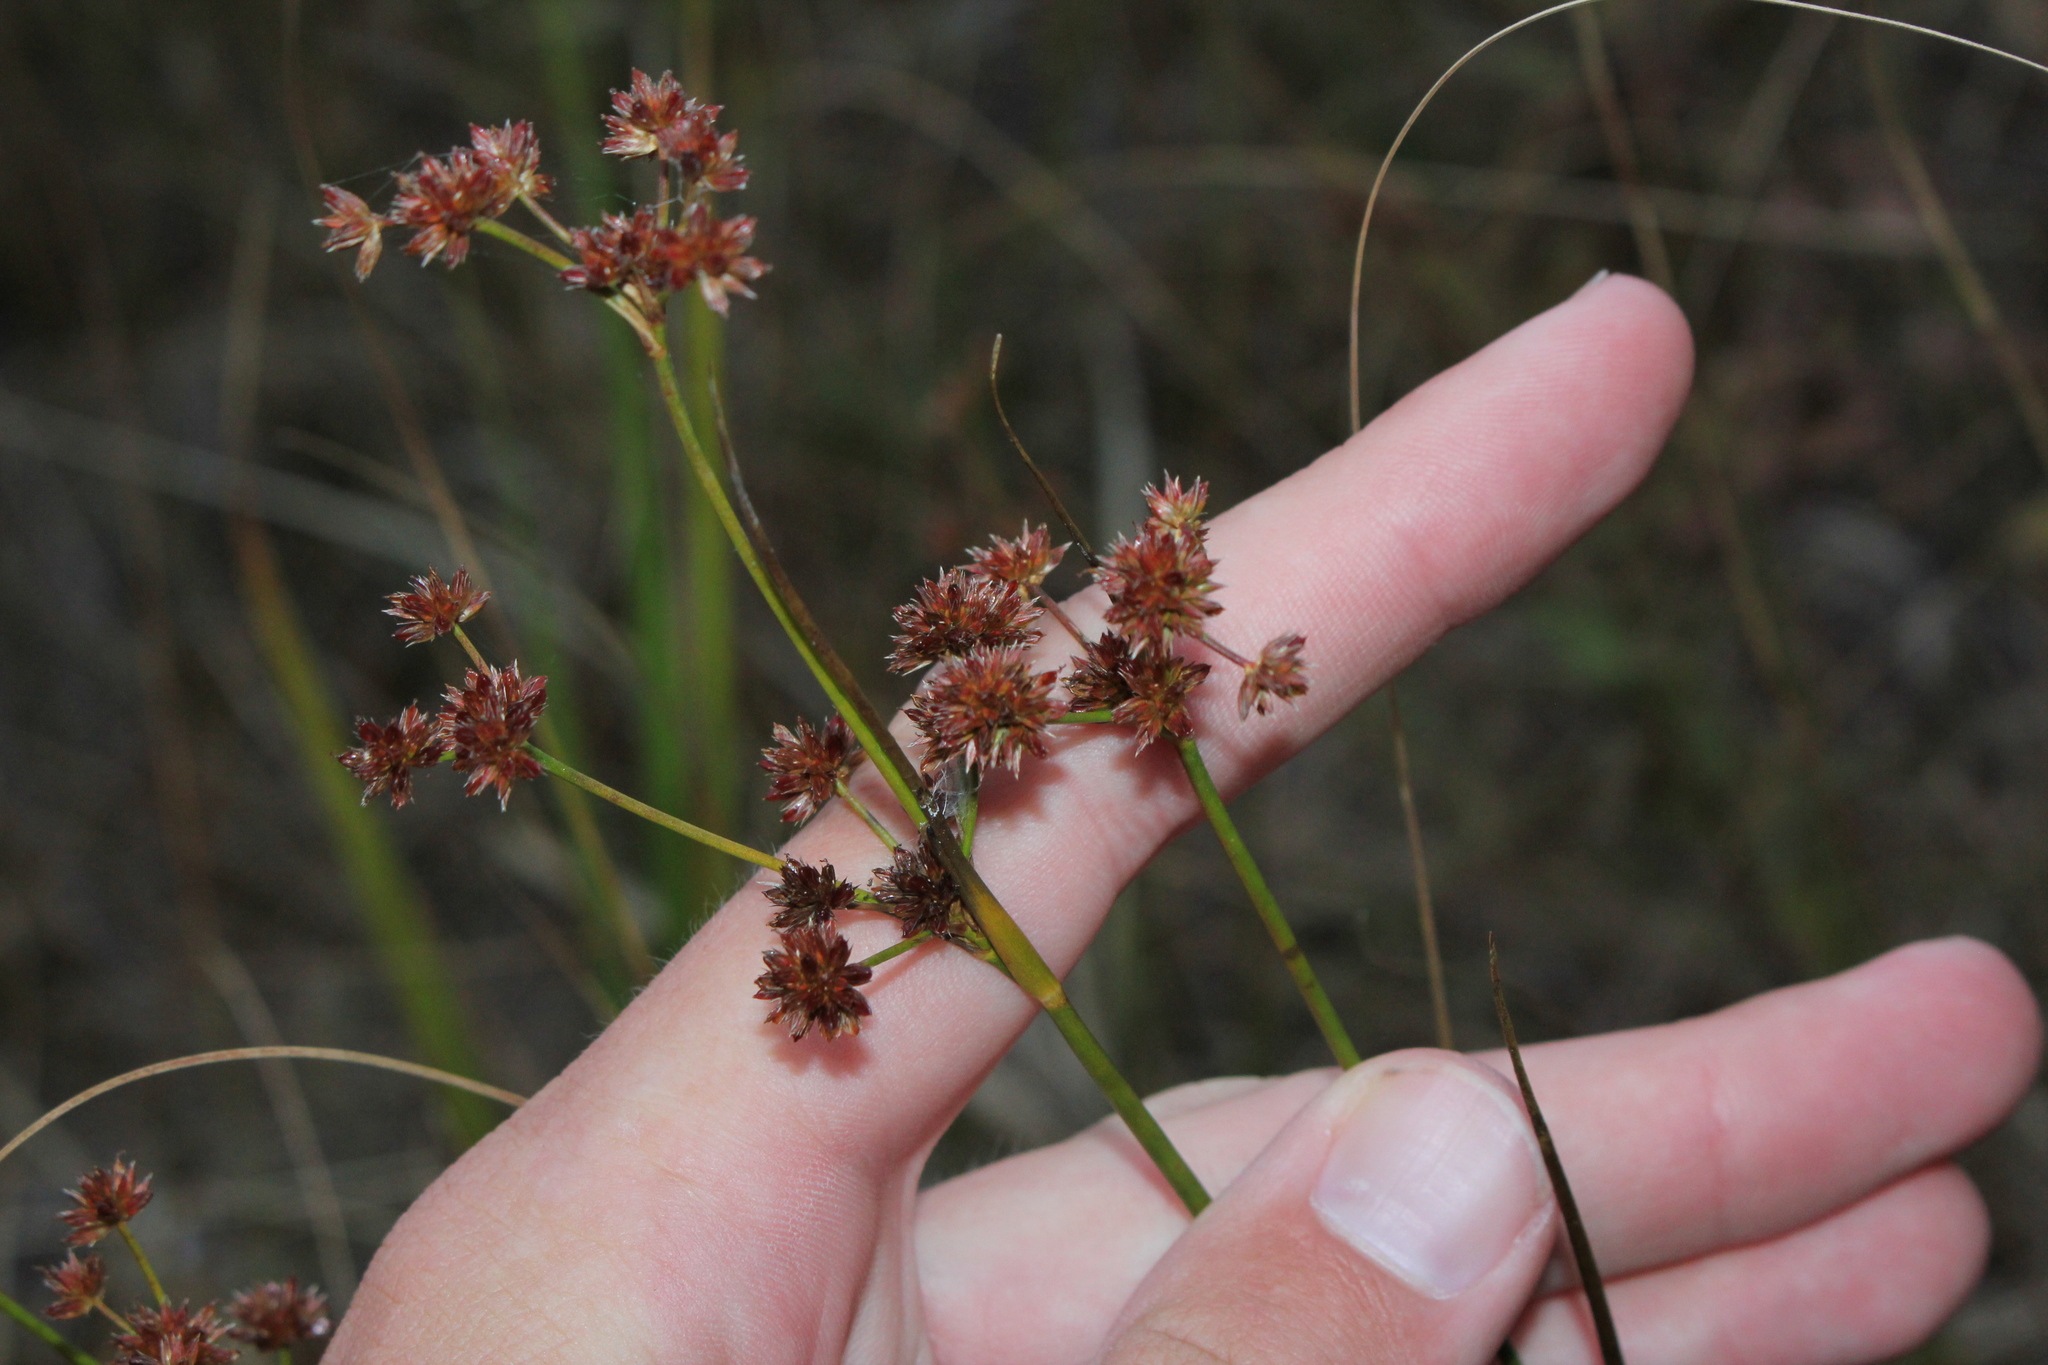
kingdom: Plantae
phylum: Tracheophyta
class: Liliopsida
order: Poales
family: Juncaceae
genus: Juncus
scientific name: Juncus canadensis
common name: Canada rush
